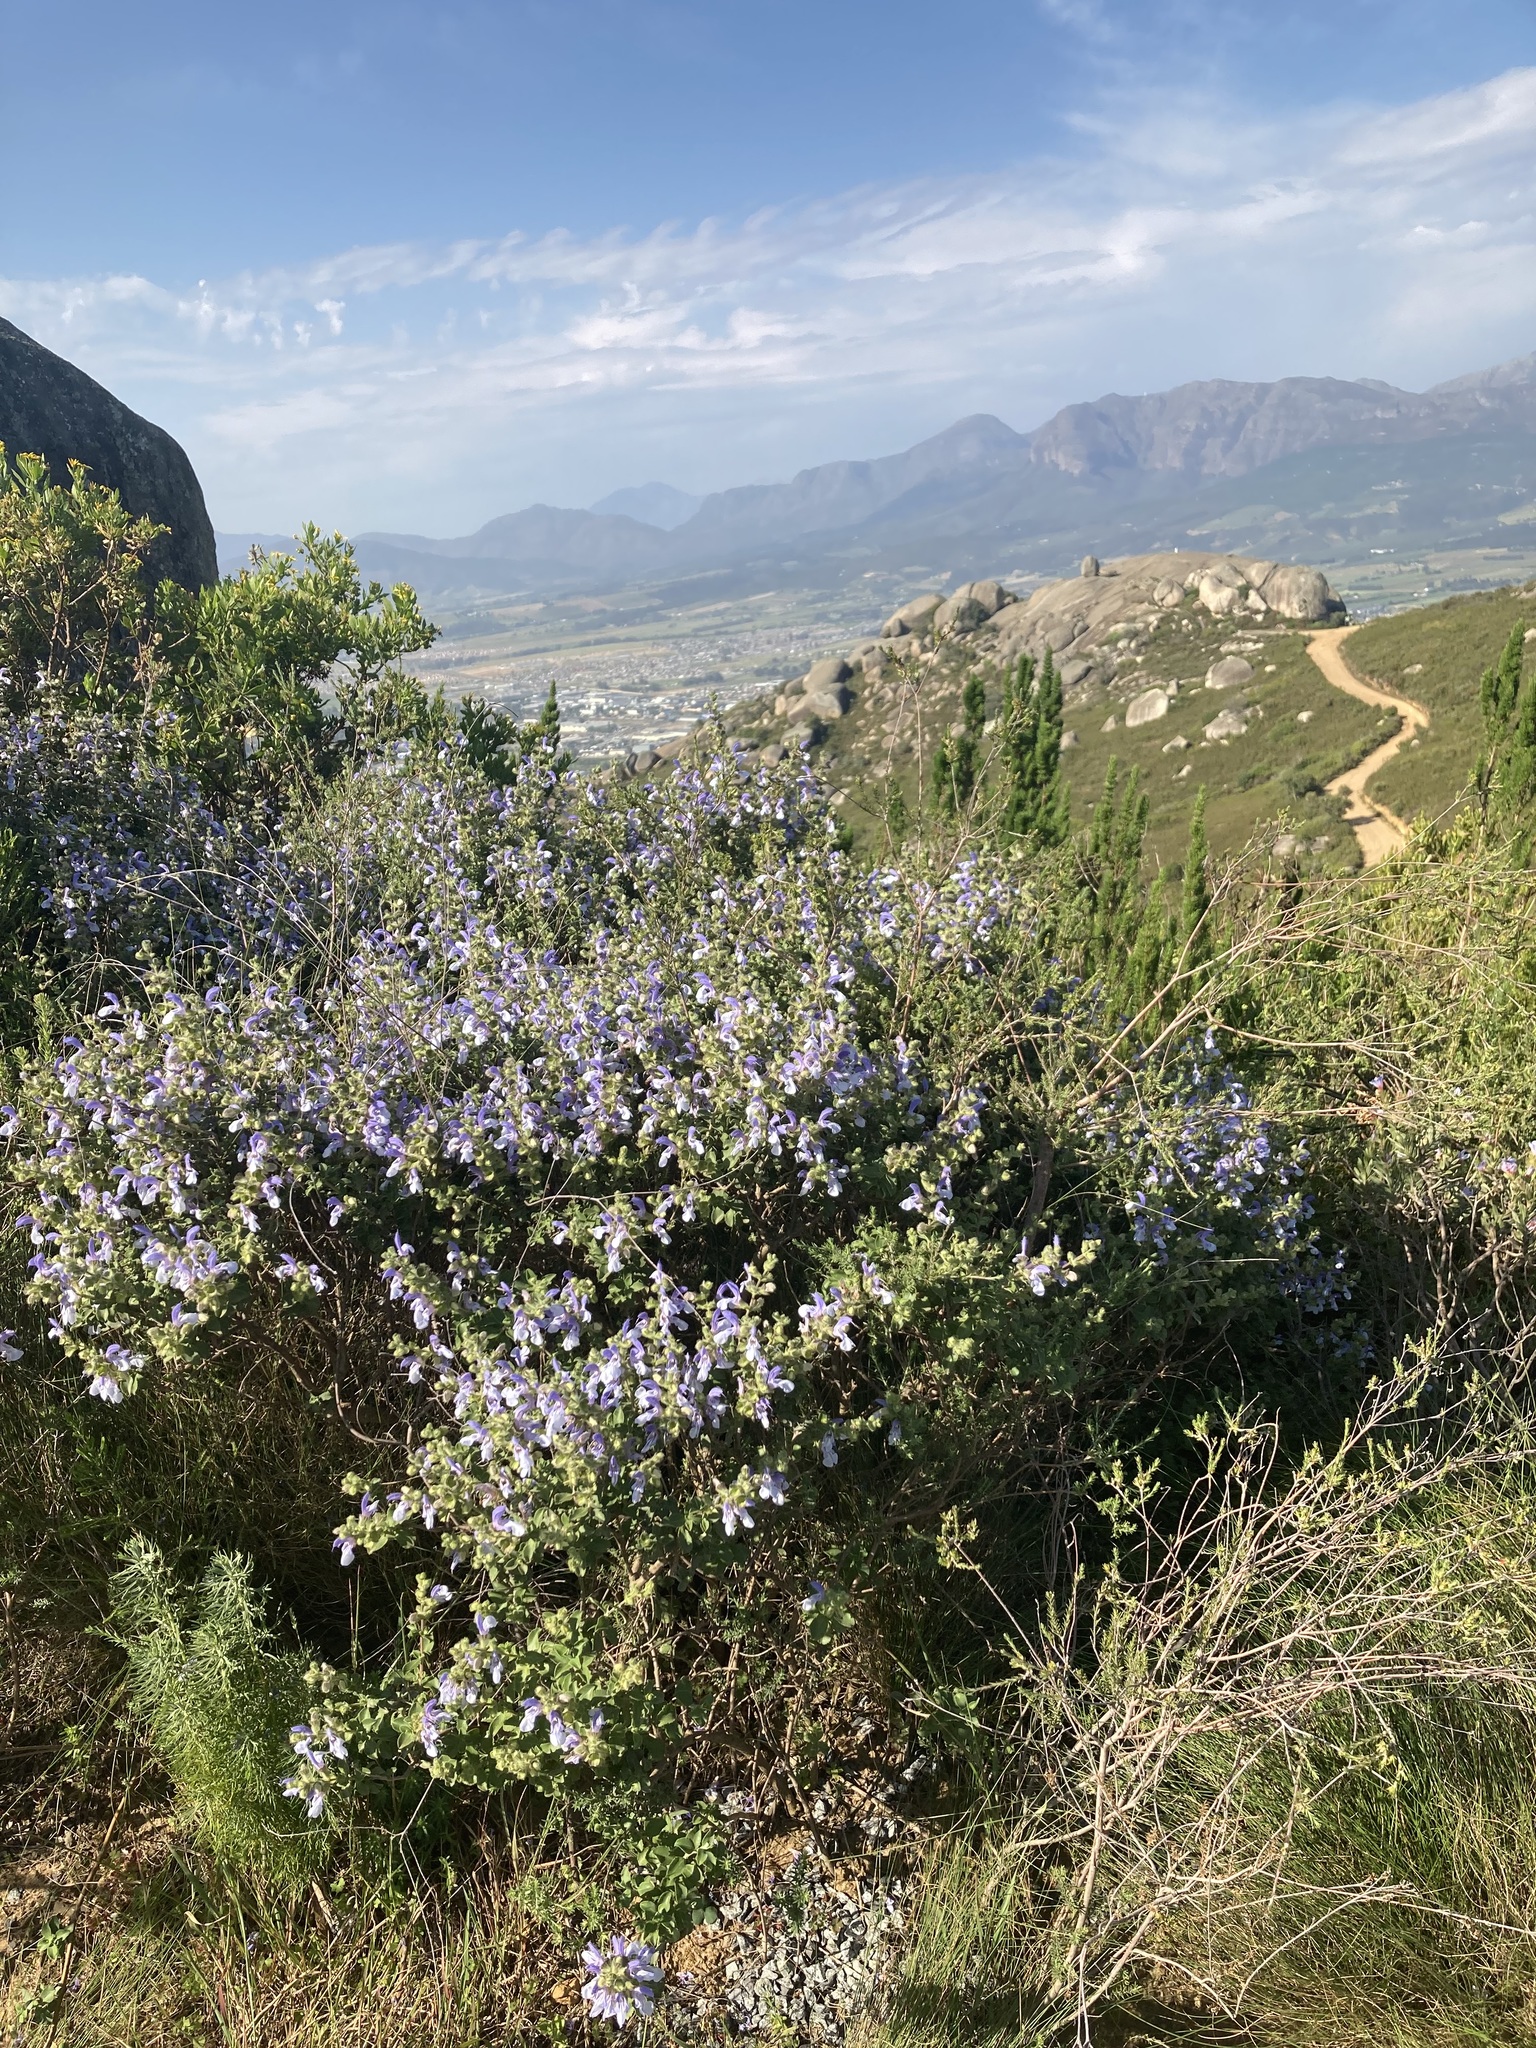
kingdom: Plantae
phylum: Tracheophyta
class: Magnoliopsida
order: Lamiales
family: Lamiaceae
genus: Salvia
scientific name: Salvia africana
